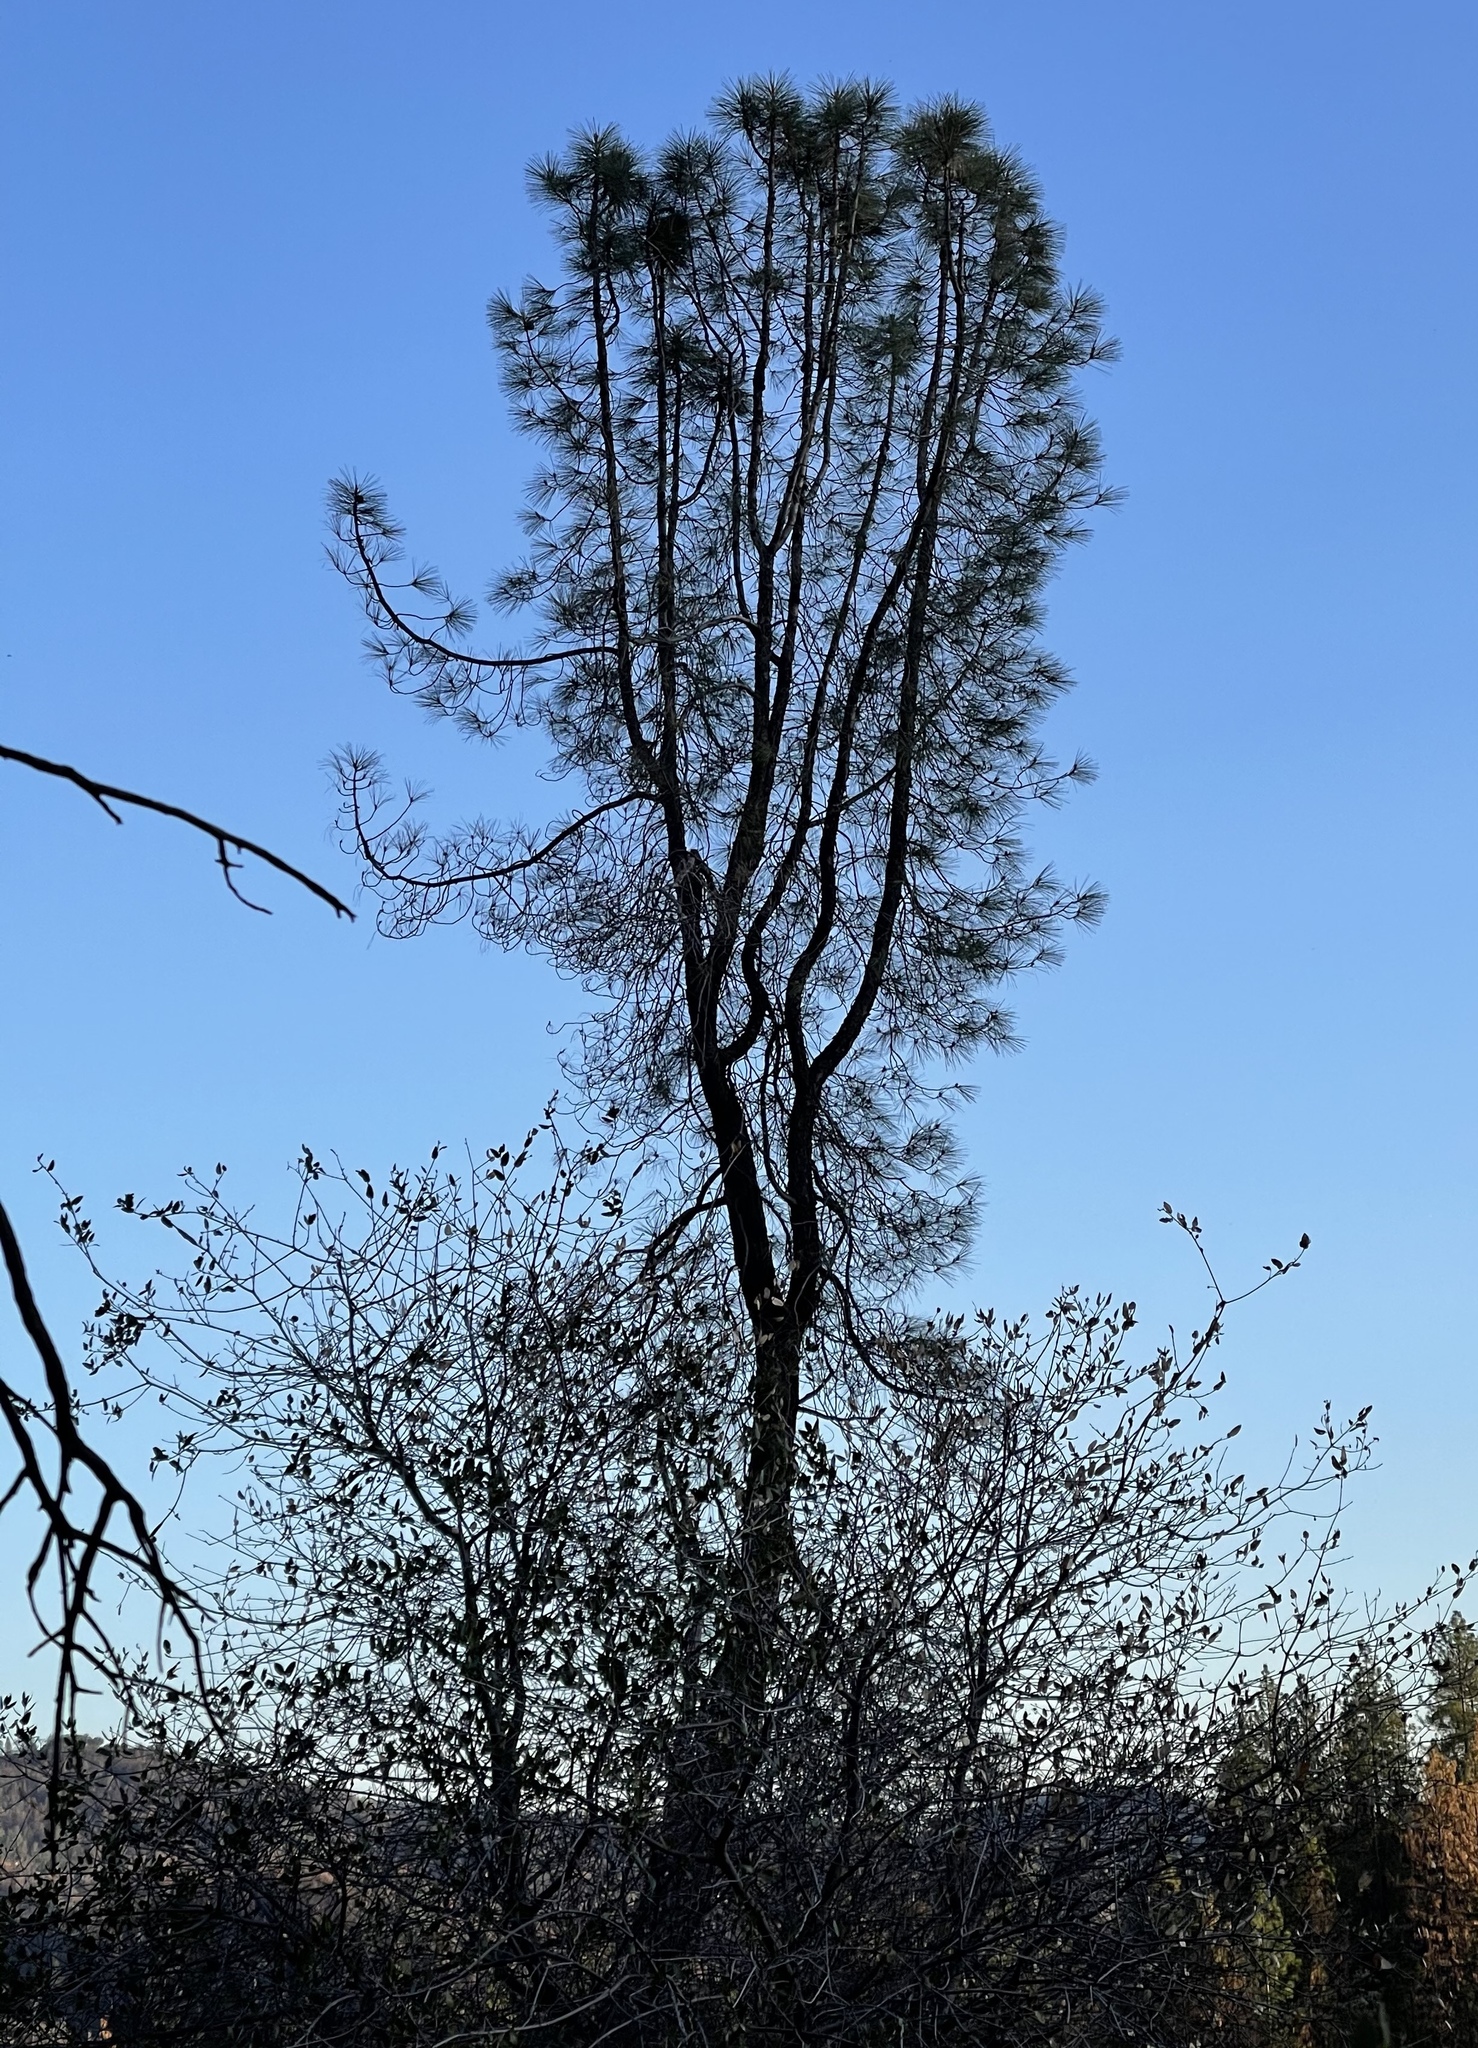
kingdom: Plantae
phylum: Tracheophyta
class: Pinopsida
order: Pinales
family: Pinaceae
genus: Pinus
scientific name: Pinus sabiniana
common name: Bull pine
